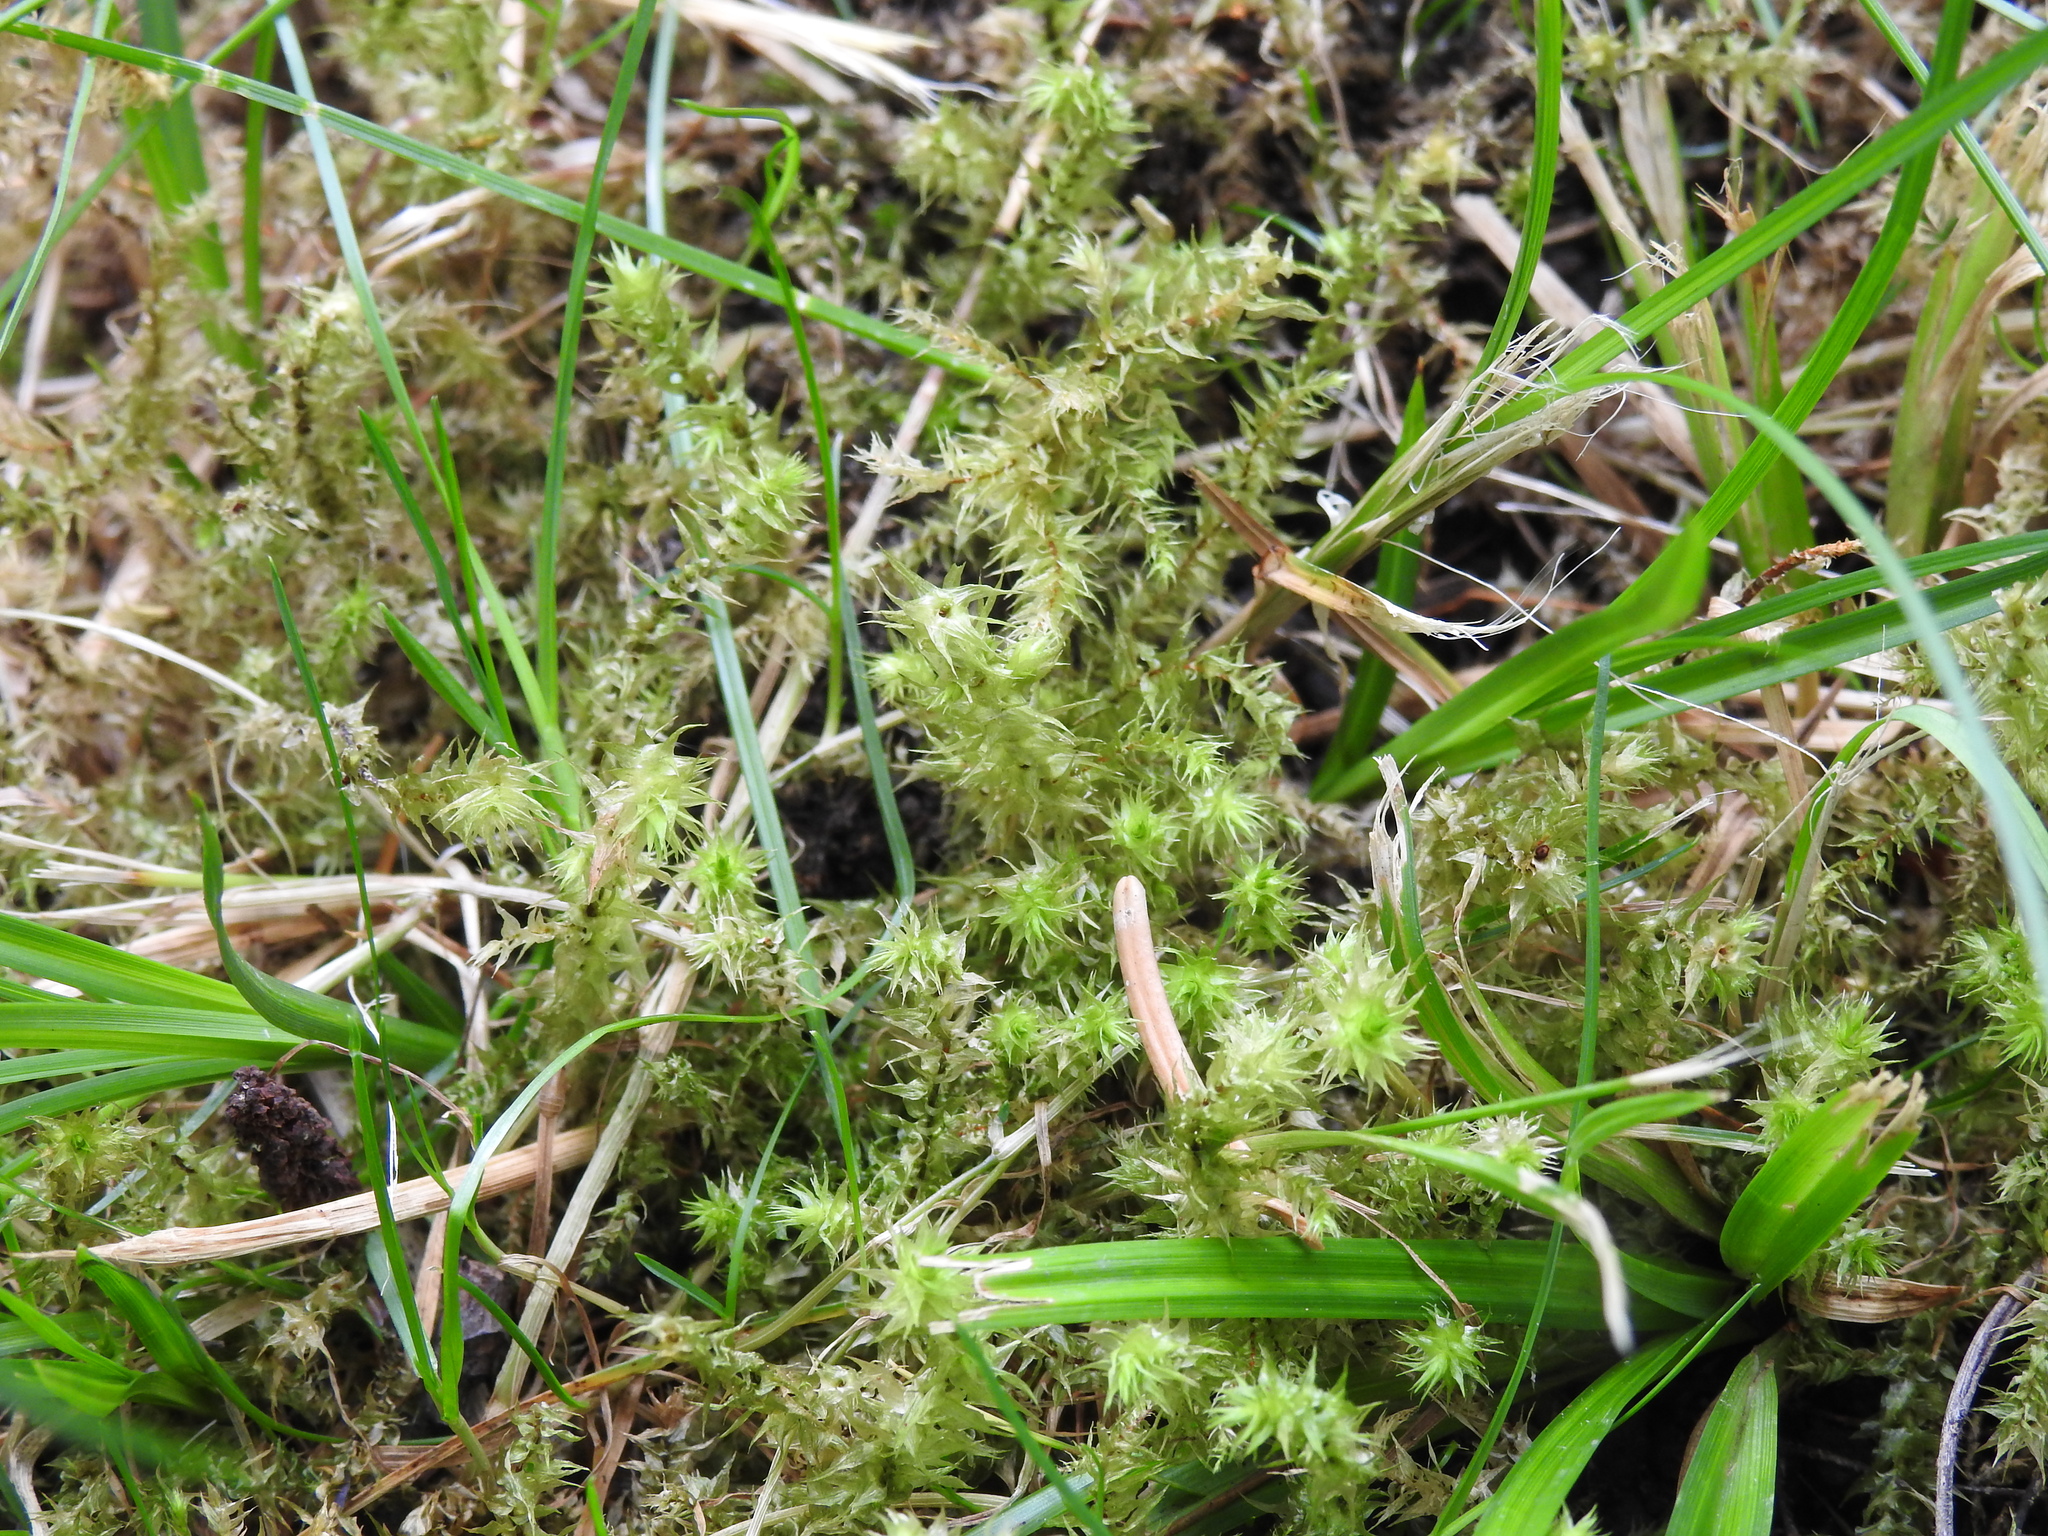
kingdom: Plantae
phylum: Bryophyta
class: Bryopsida
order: Hypnales
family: Hylocomiaceae
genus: Hylocomiadelphus
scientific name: Hylocomiadelphus triquetrus
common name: Rough goose neck moss
